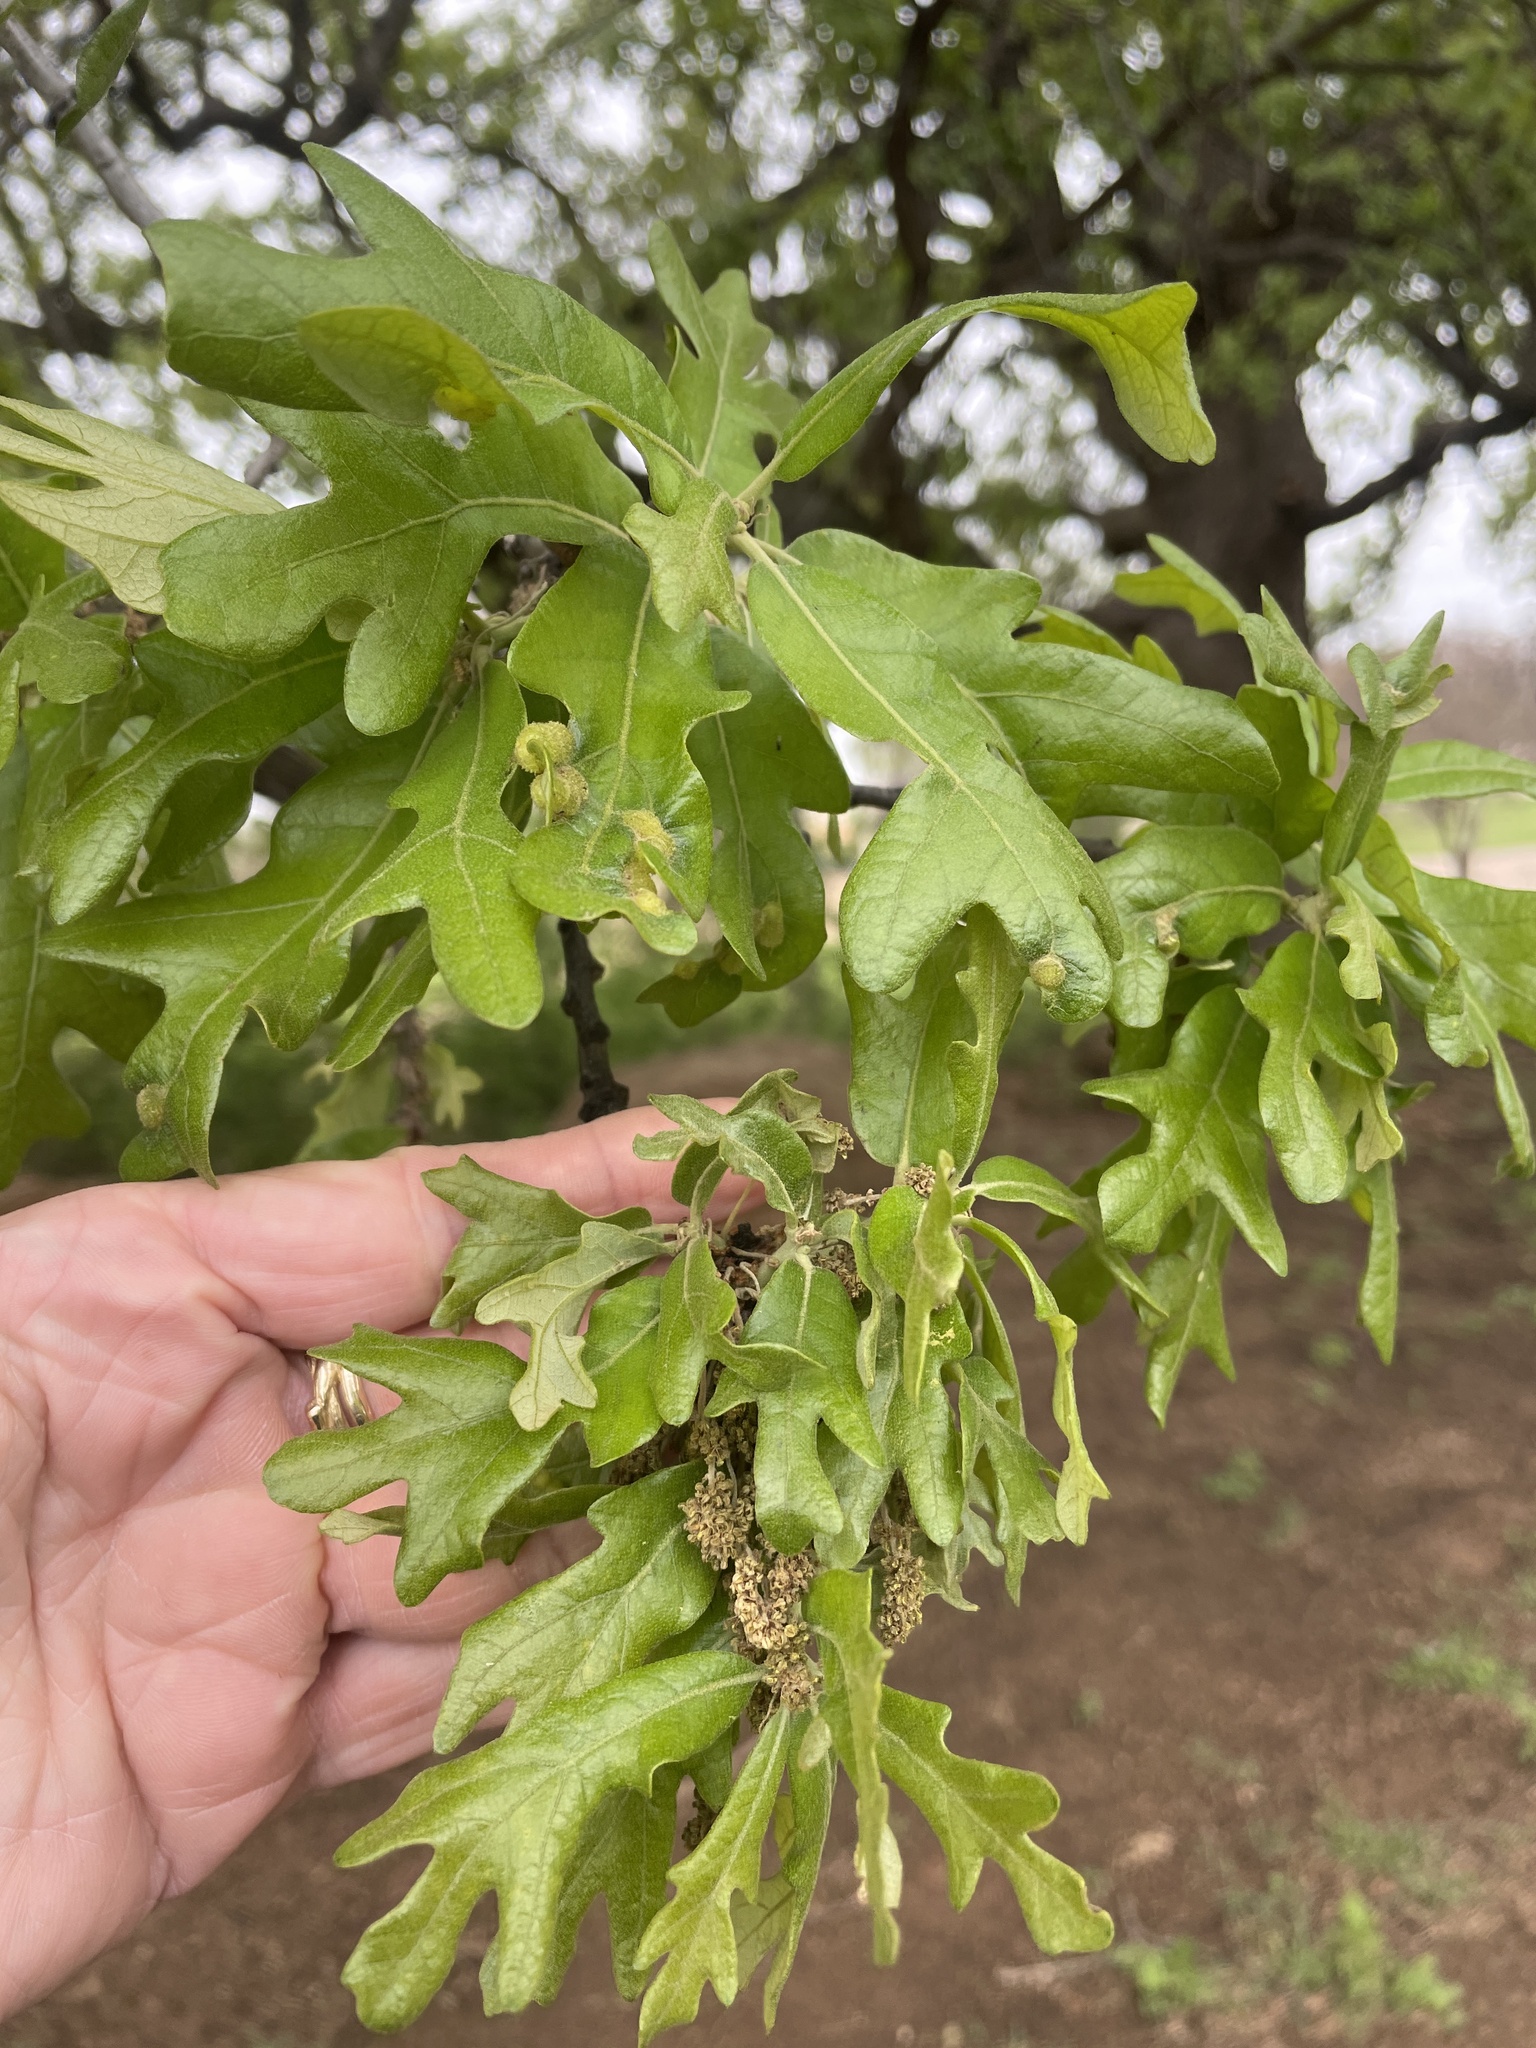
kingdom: Plantae
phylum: Tracheophyta
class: Magnoliopsida
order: Fagales
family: Fagaceae
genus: Quercus
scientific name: Quercus stellata
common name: Post oak
